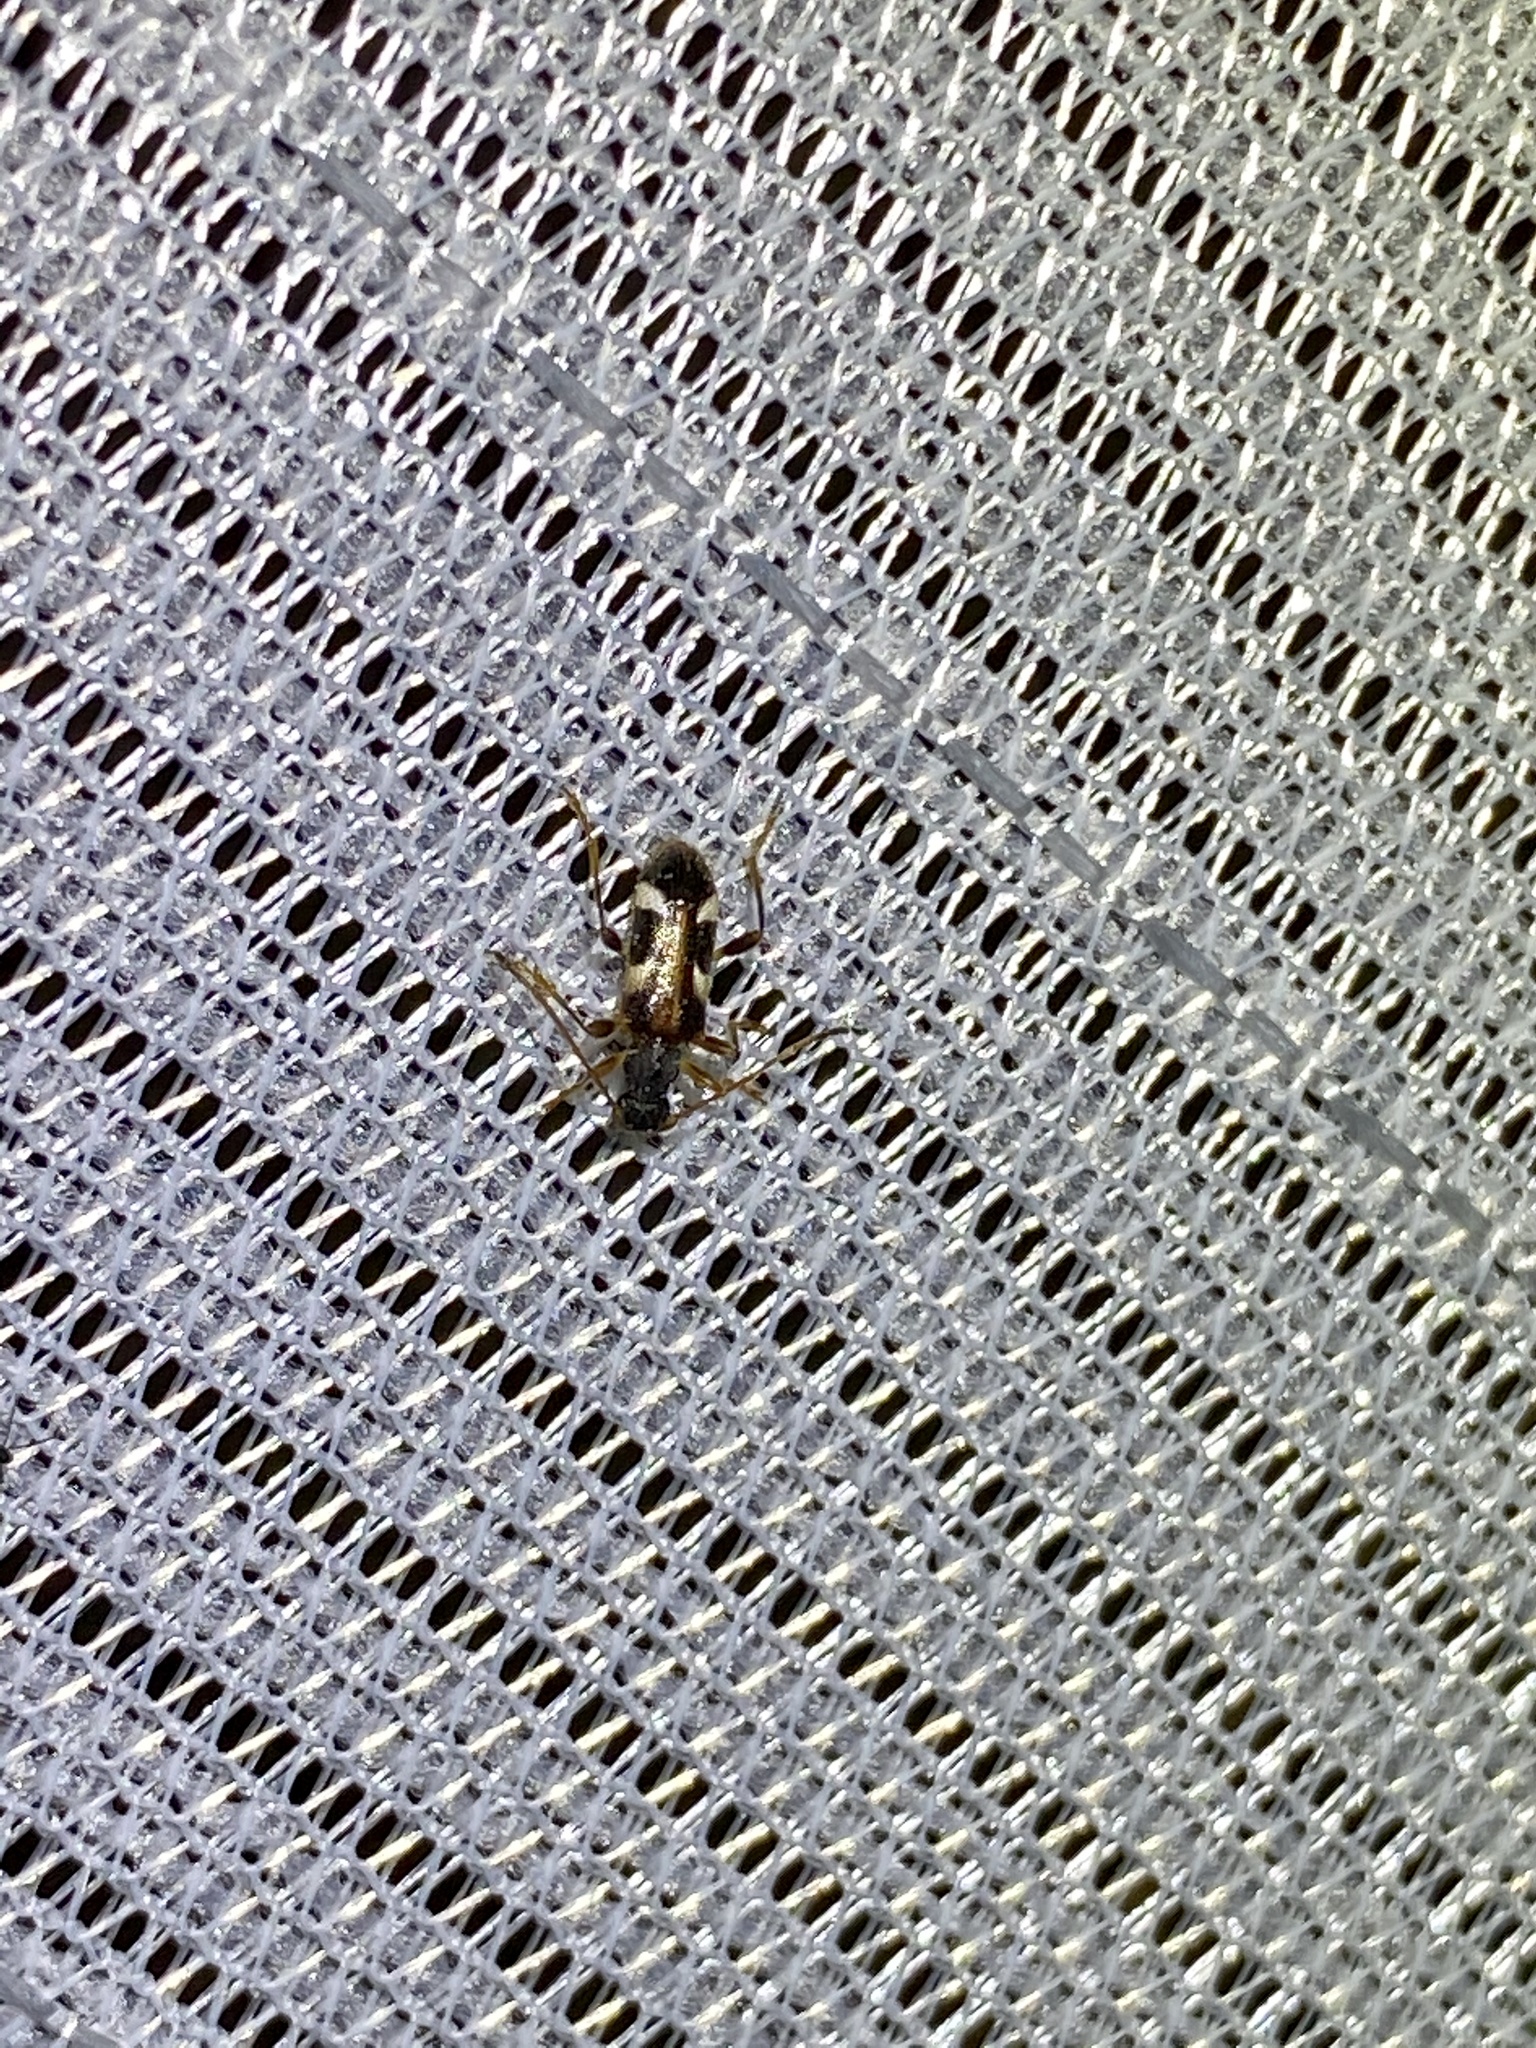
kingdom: Animalia
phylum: Arthropoda
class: Insecta
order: Coleoptera
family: Cerambycidae
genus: Pidonia
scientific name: Pidonia puziloi
